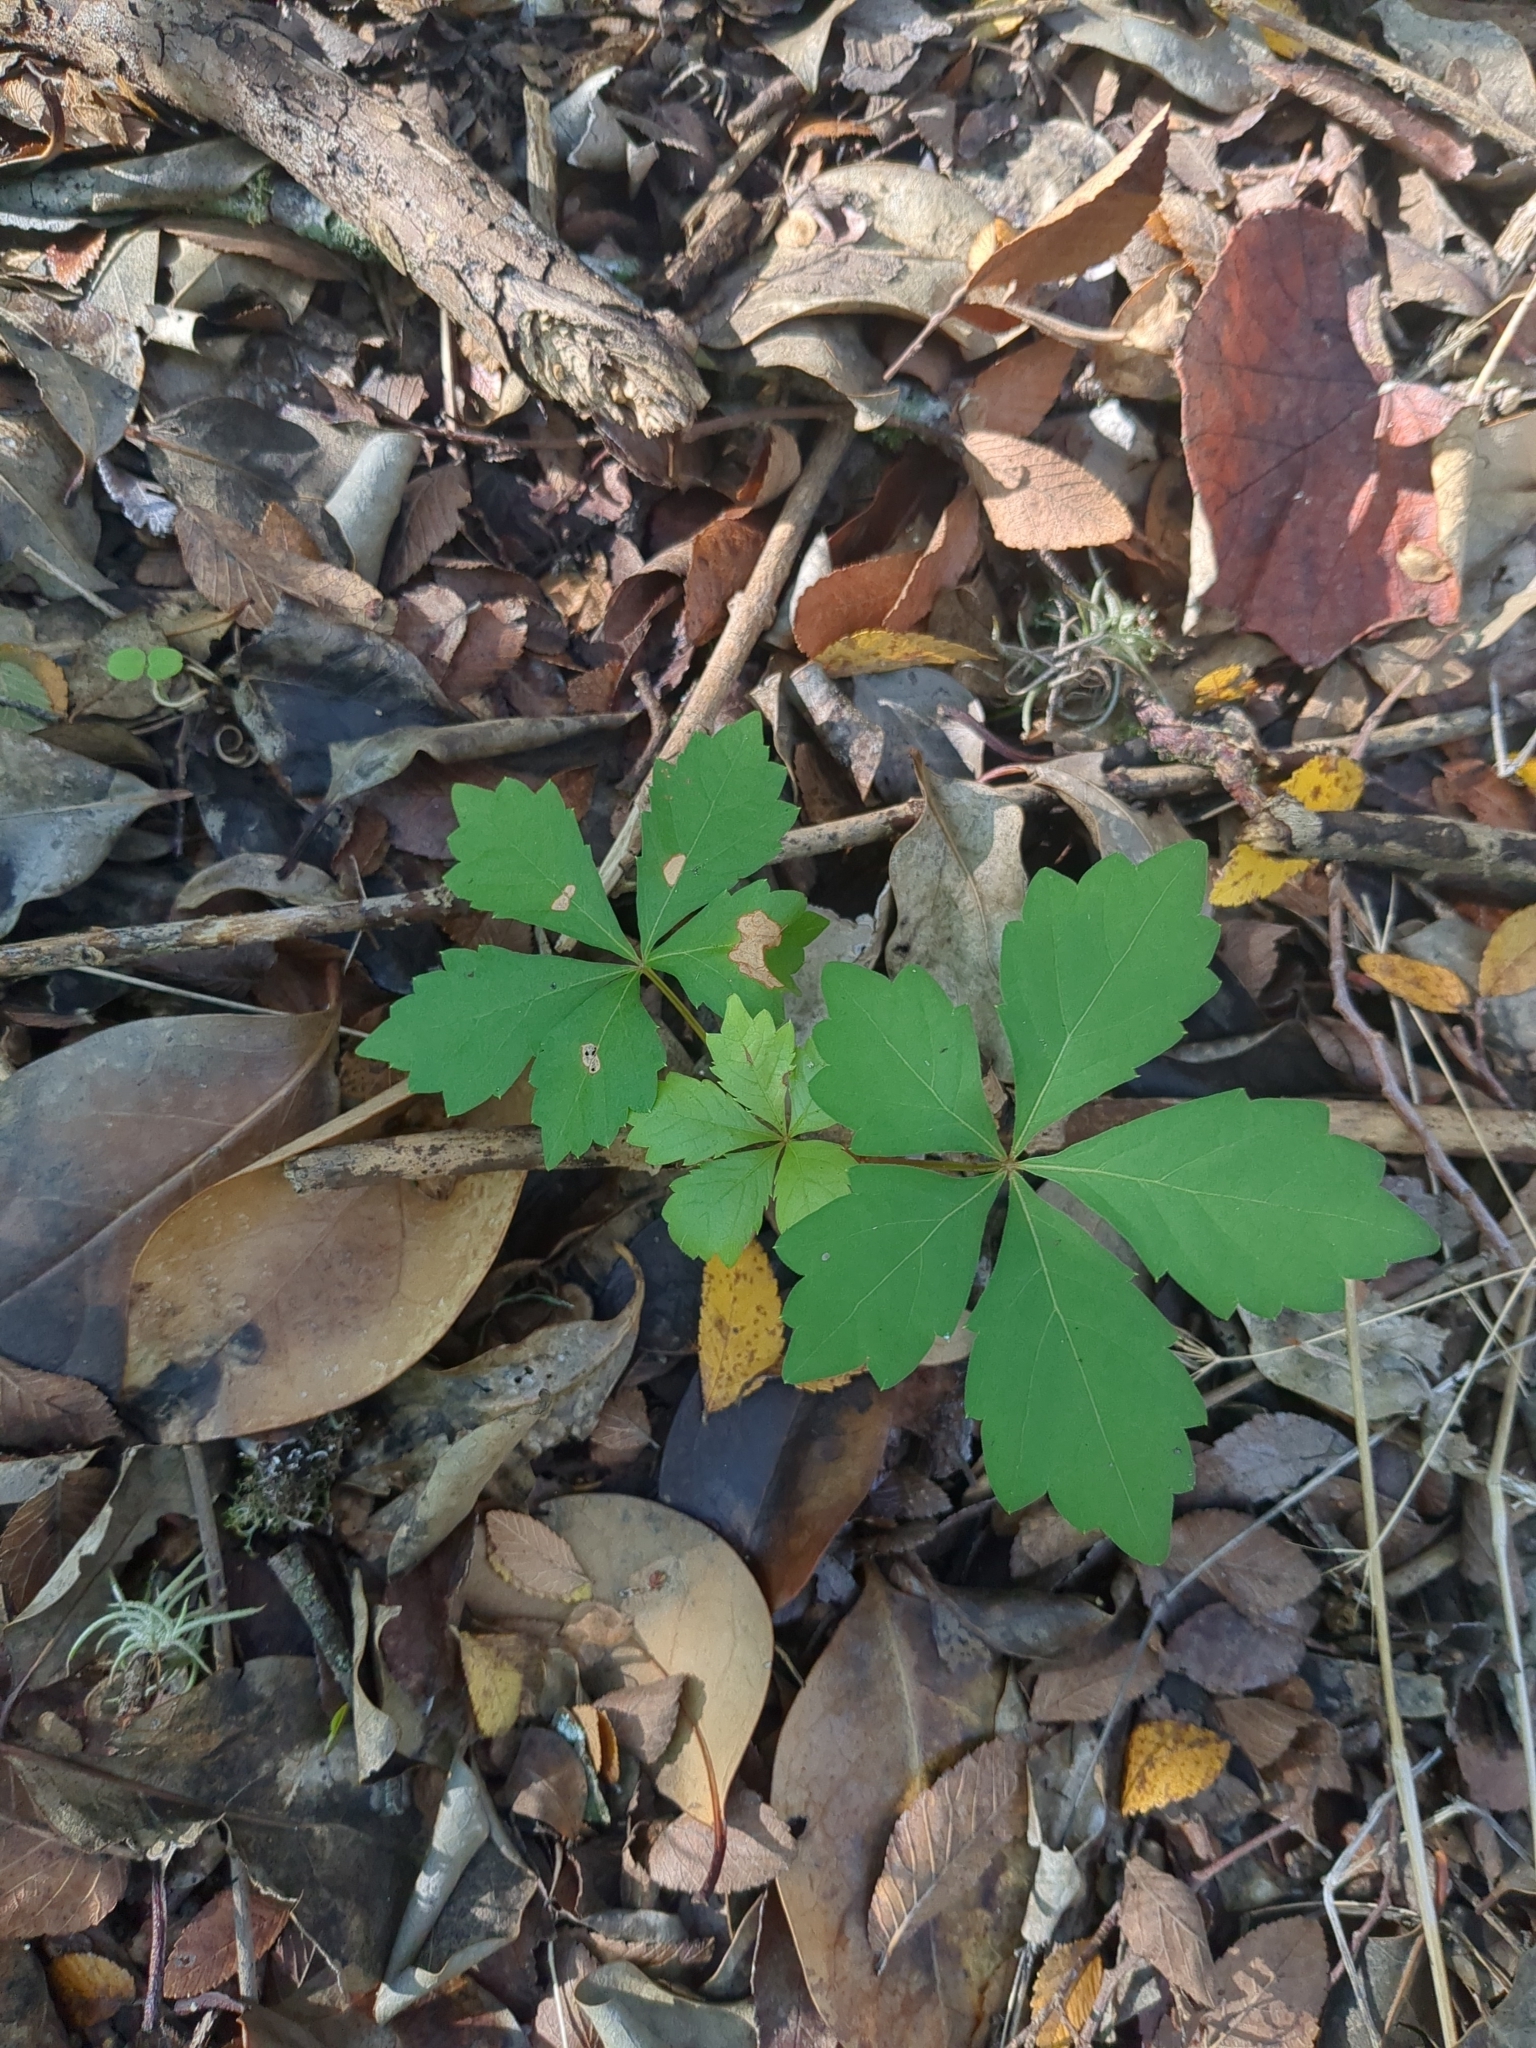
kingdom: Plantae
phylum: Tracheophyta
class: Magnoliopsida
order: Vitales
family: Vitaceae
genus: Parthenocissus
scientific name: Parthenocissus quinquefolia
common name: Virginia-creeper
